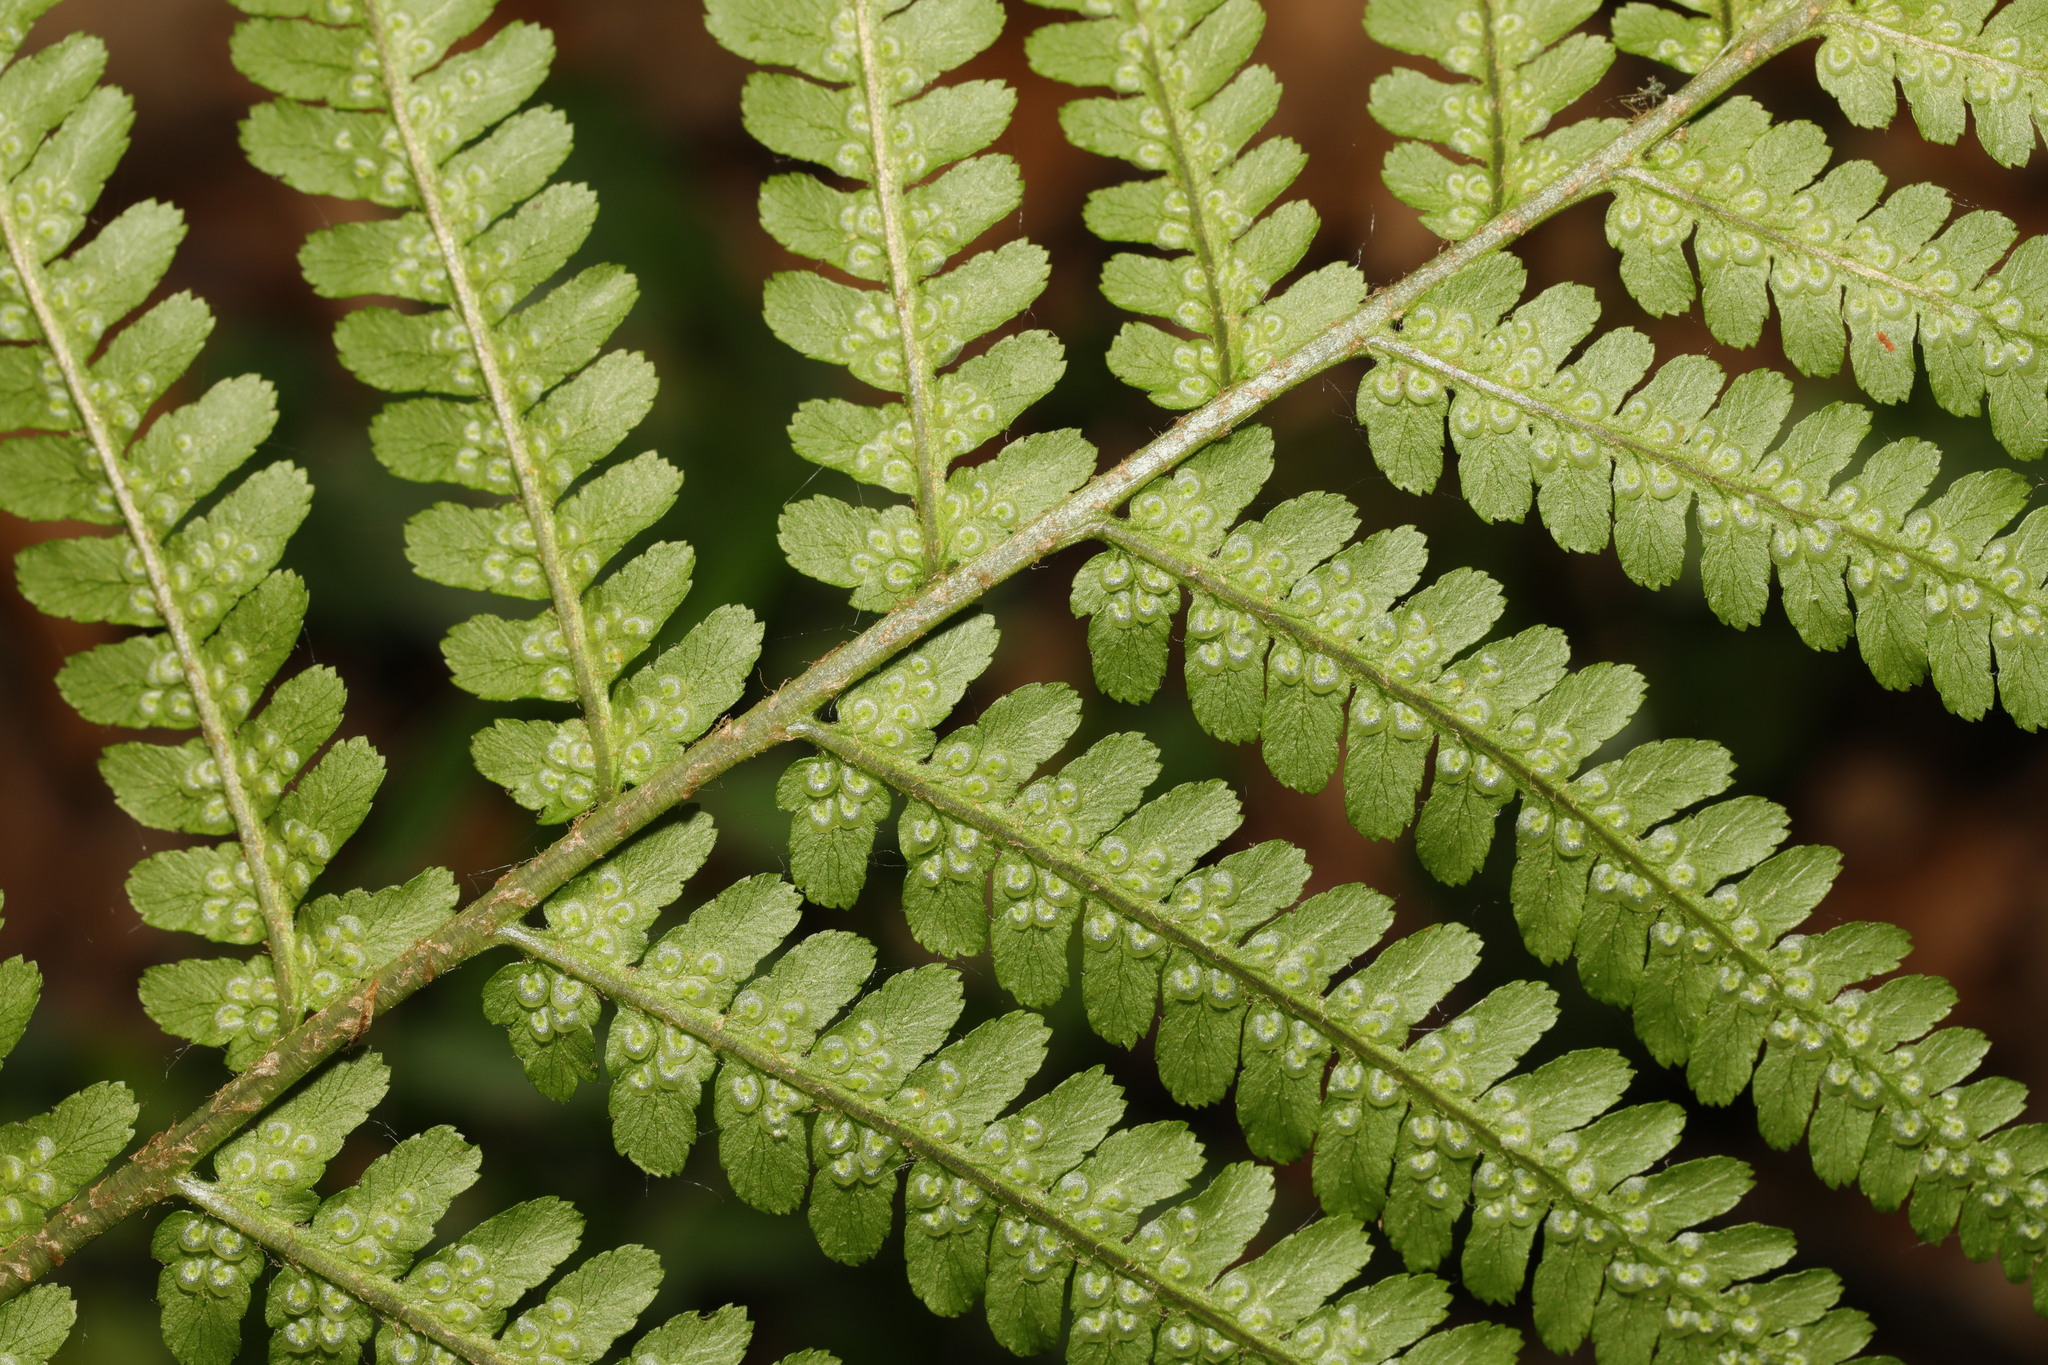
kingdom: Plantae
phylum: Tracheophyta
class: Polypodiopsida
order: Polypodiales
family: Dryopteridaceae
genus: Dryopteris
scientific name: Dryopteris filix-mas
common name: Male fern
